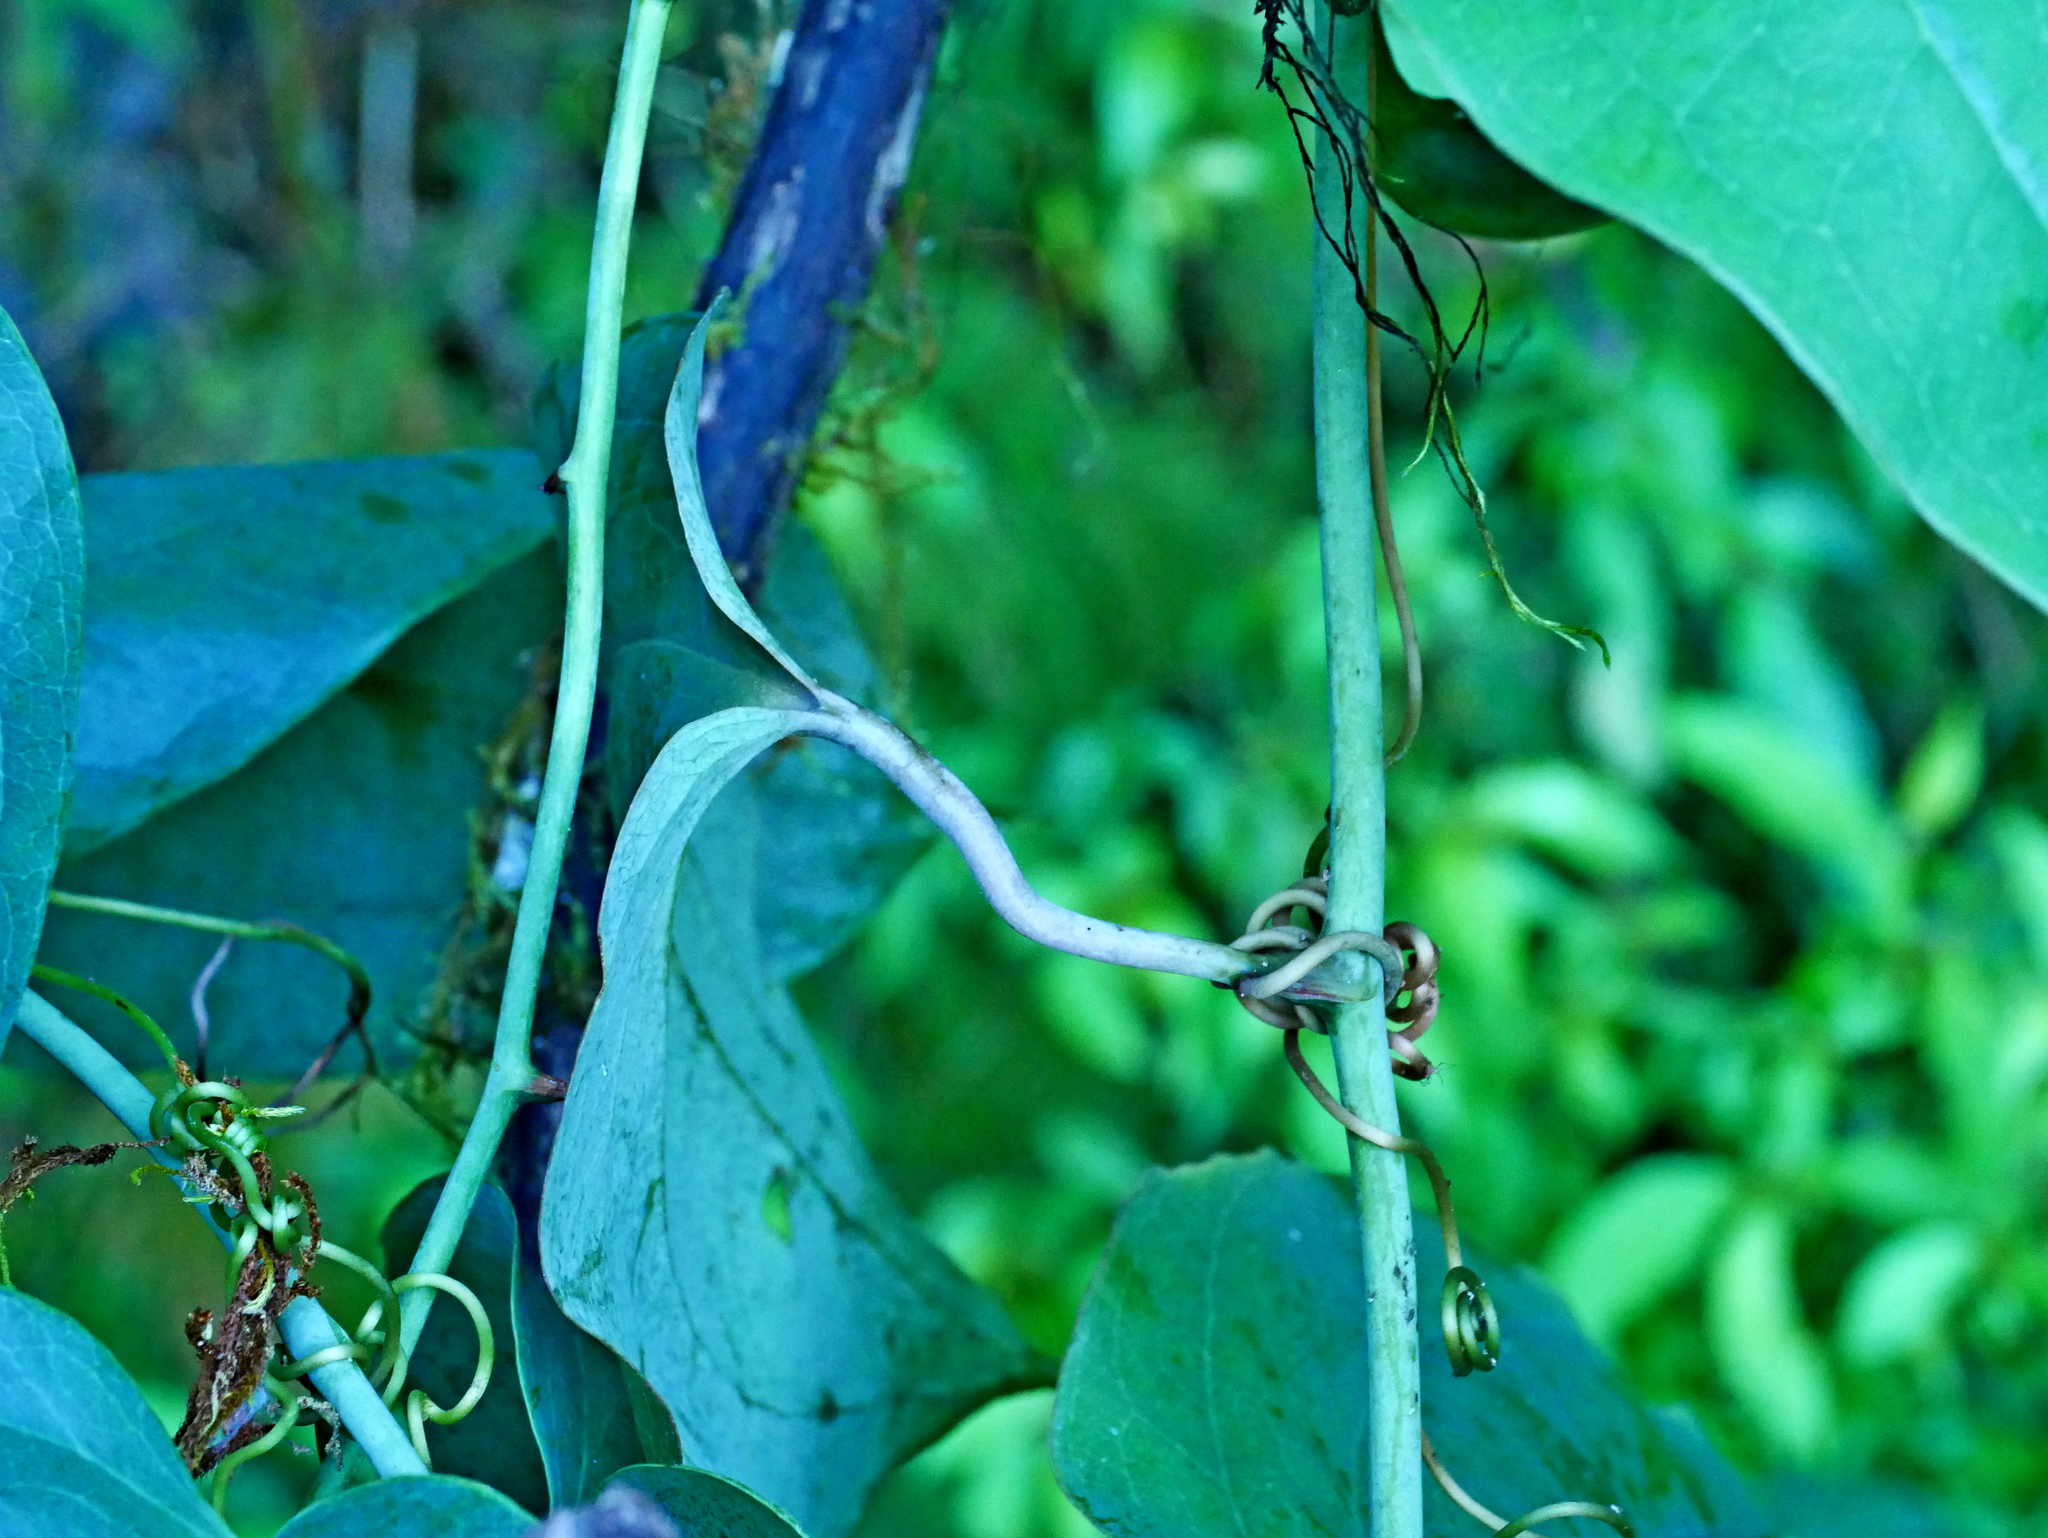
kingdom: Plantae
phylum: Tracheophyta
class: Liliopsida
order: Liliales
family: Smilacaceae
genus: Smilax
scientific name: Smilax seisuiensis
